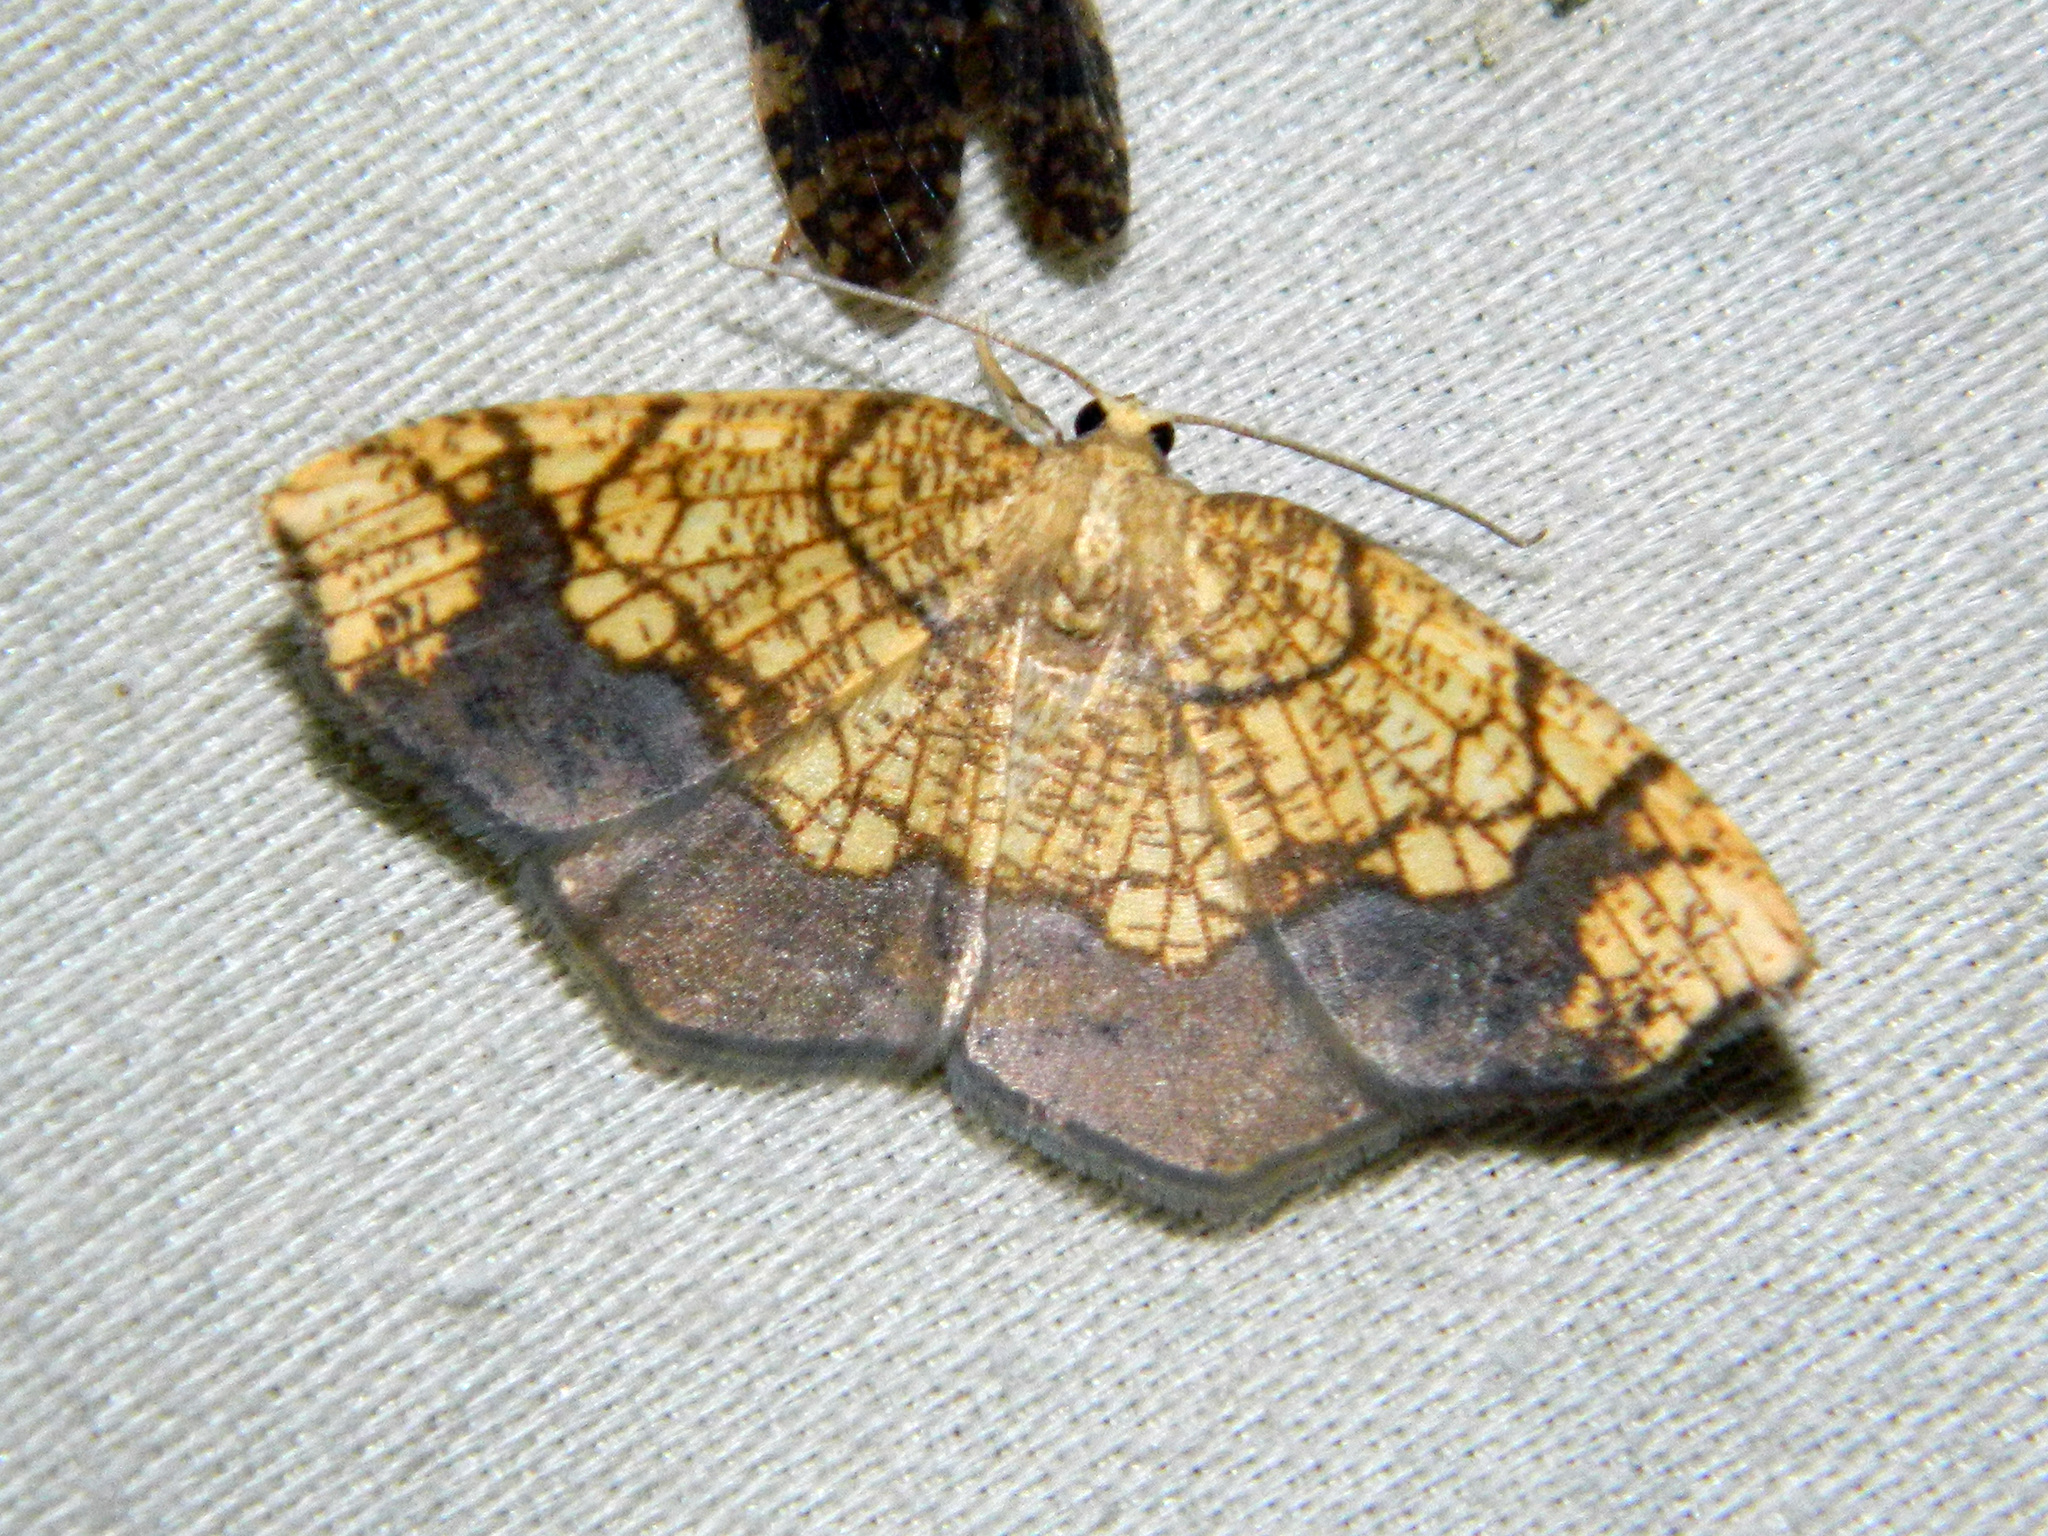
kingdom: Animalia
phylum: Arthropoda
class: Insecta
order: Lepidoptera
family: Geometridae
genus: Nematocampa
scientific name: Nematocampa resistaria
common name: Horned spanworm moth
